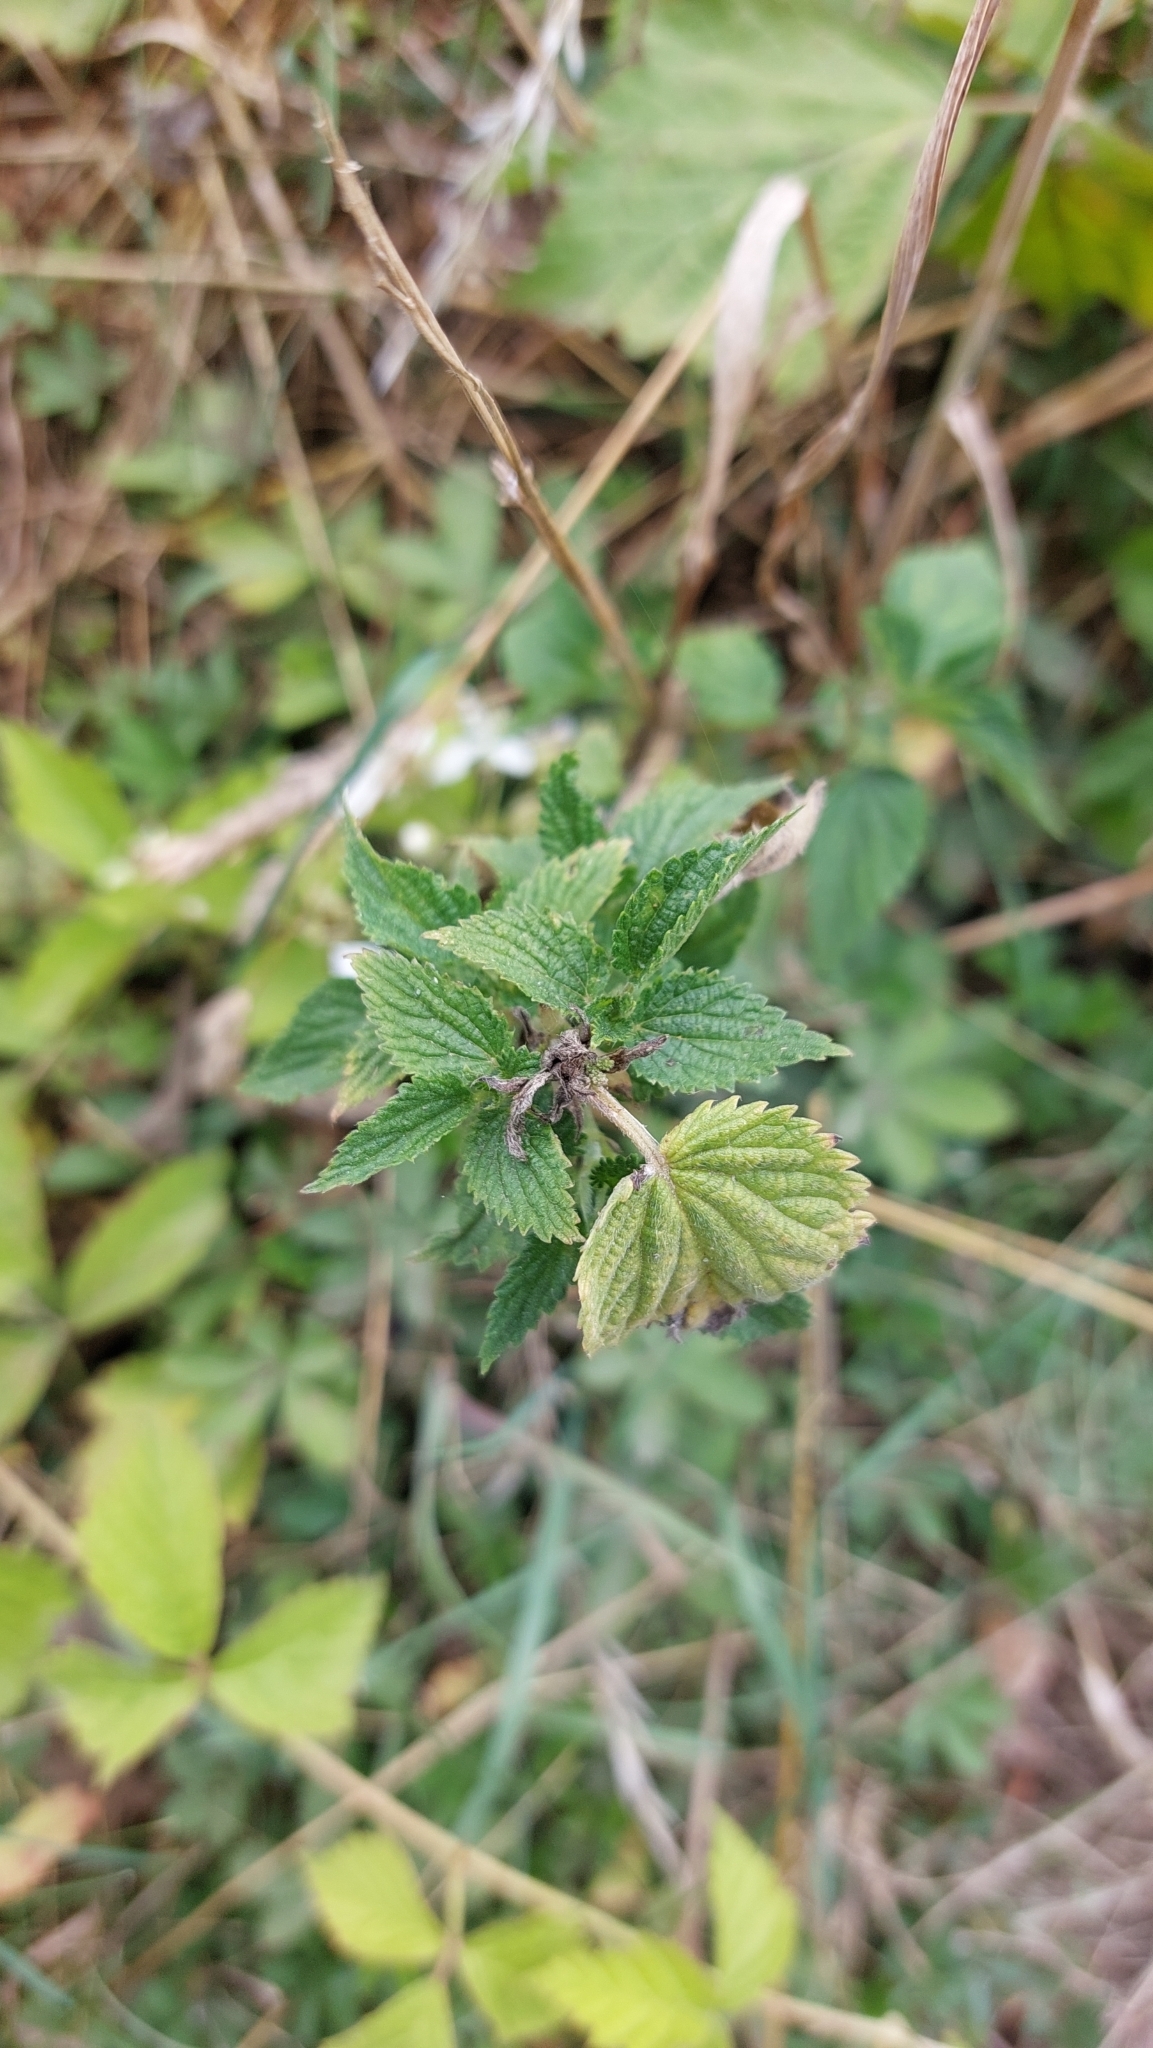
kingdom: Plantae
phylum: Tracheophyta
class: Magnoliopsida
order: Rosales
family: Urticaceae
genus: Urtica
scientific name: Urtica dioica
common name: Common nettle
